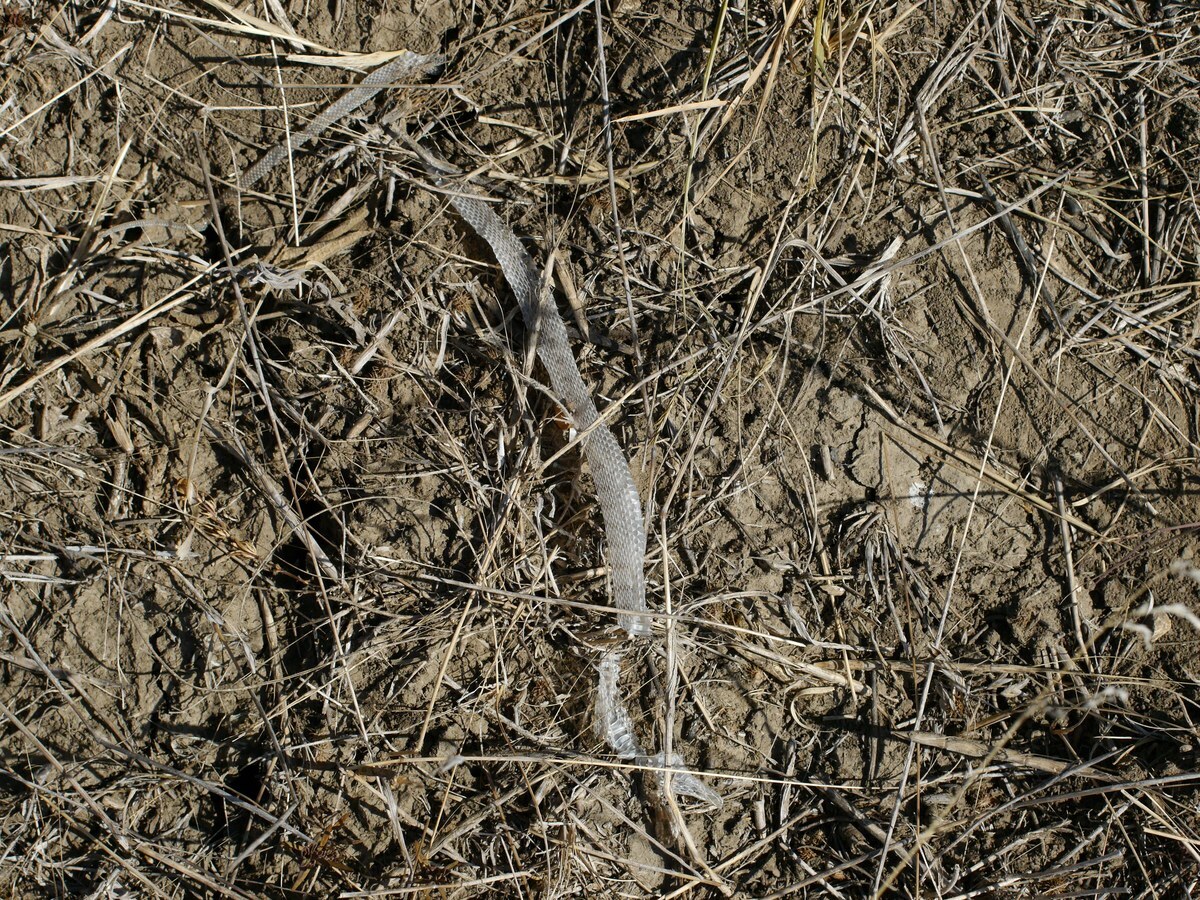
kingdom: Animalia
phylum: Chordata
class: Squamata
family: Colubridae
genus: Dolichophis
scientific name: Dolichophis caspius
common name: Large whip snake
